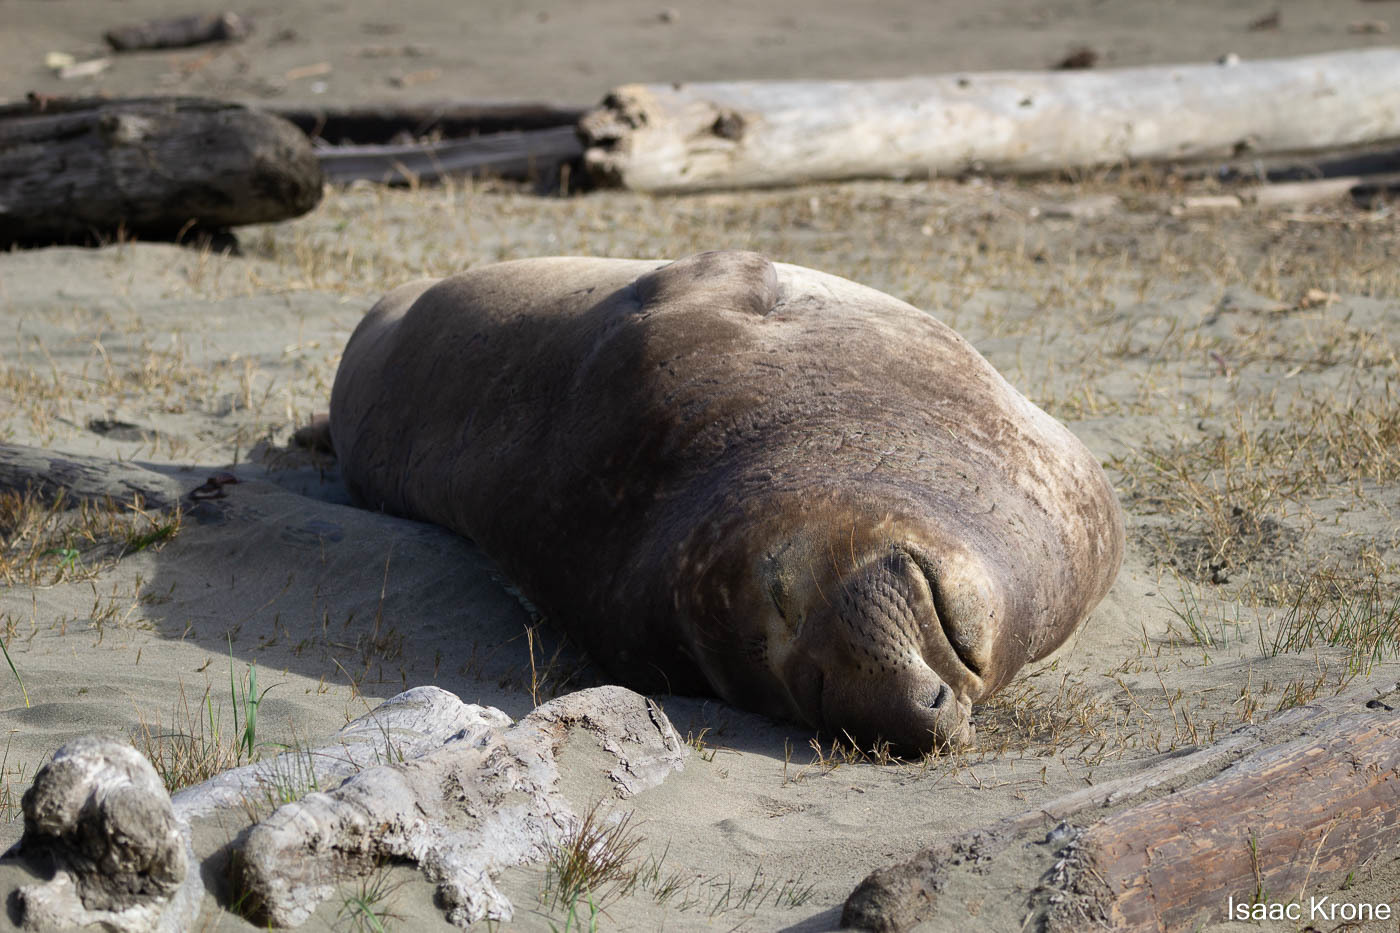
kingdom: Animalia
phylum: Chordata
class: Mammalia
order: Carnivora
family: Phocidae
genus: Mirounga
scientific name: Mirounga angustirostris
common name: Northern elephant seal
